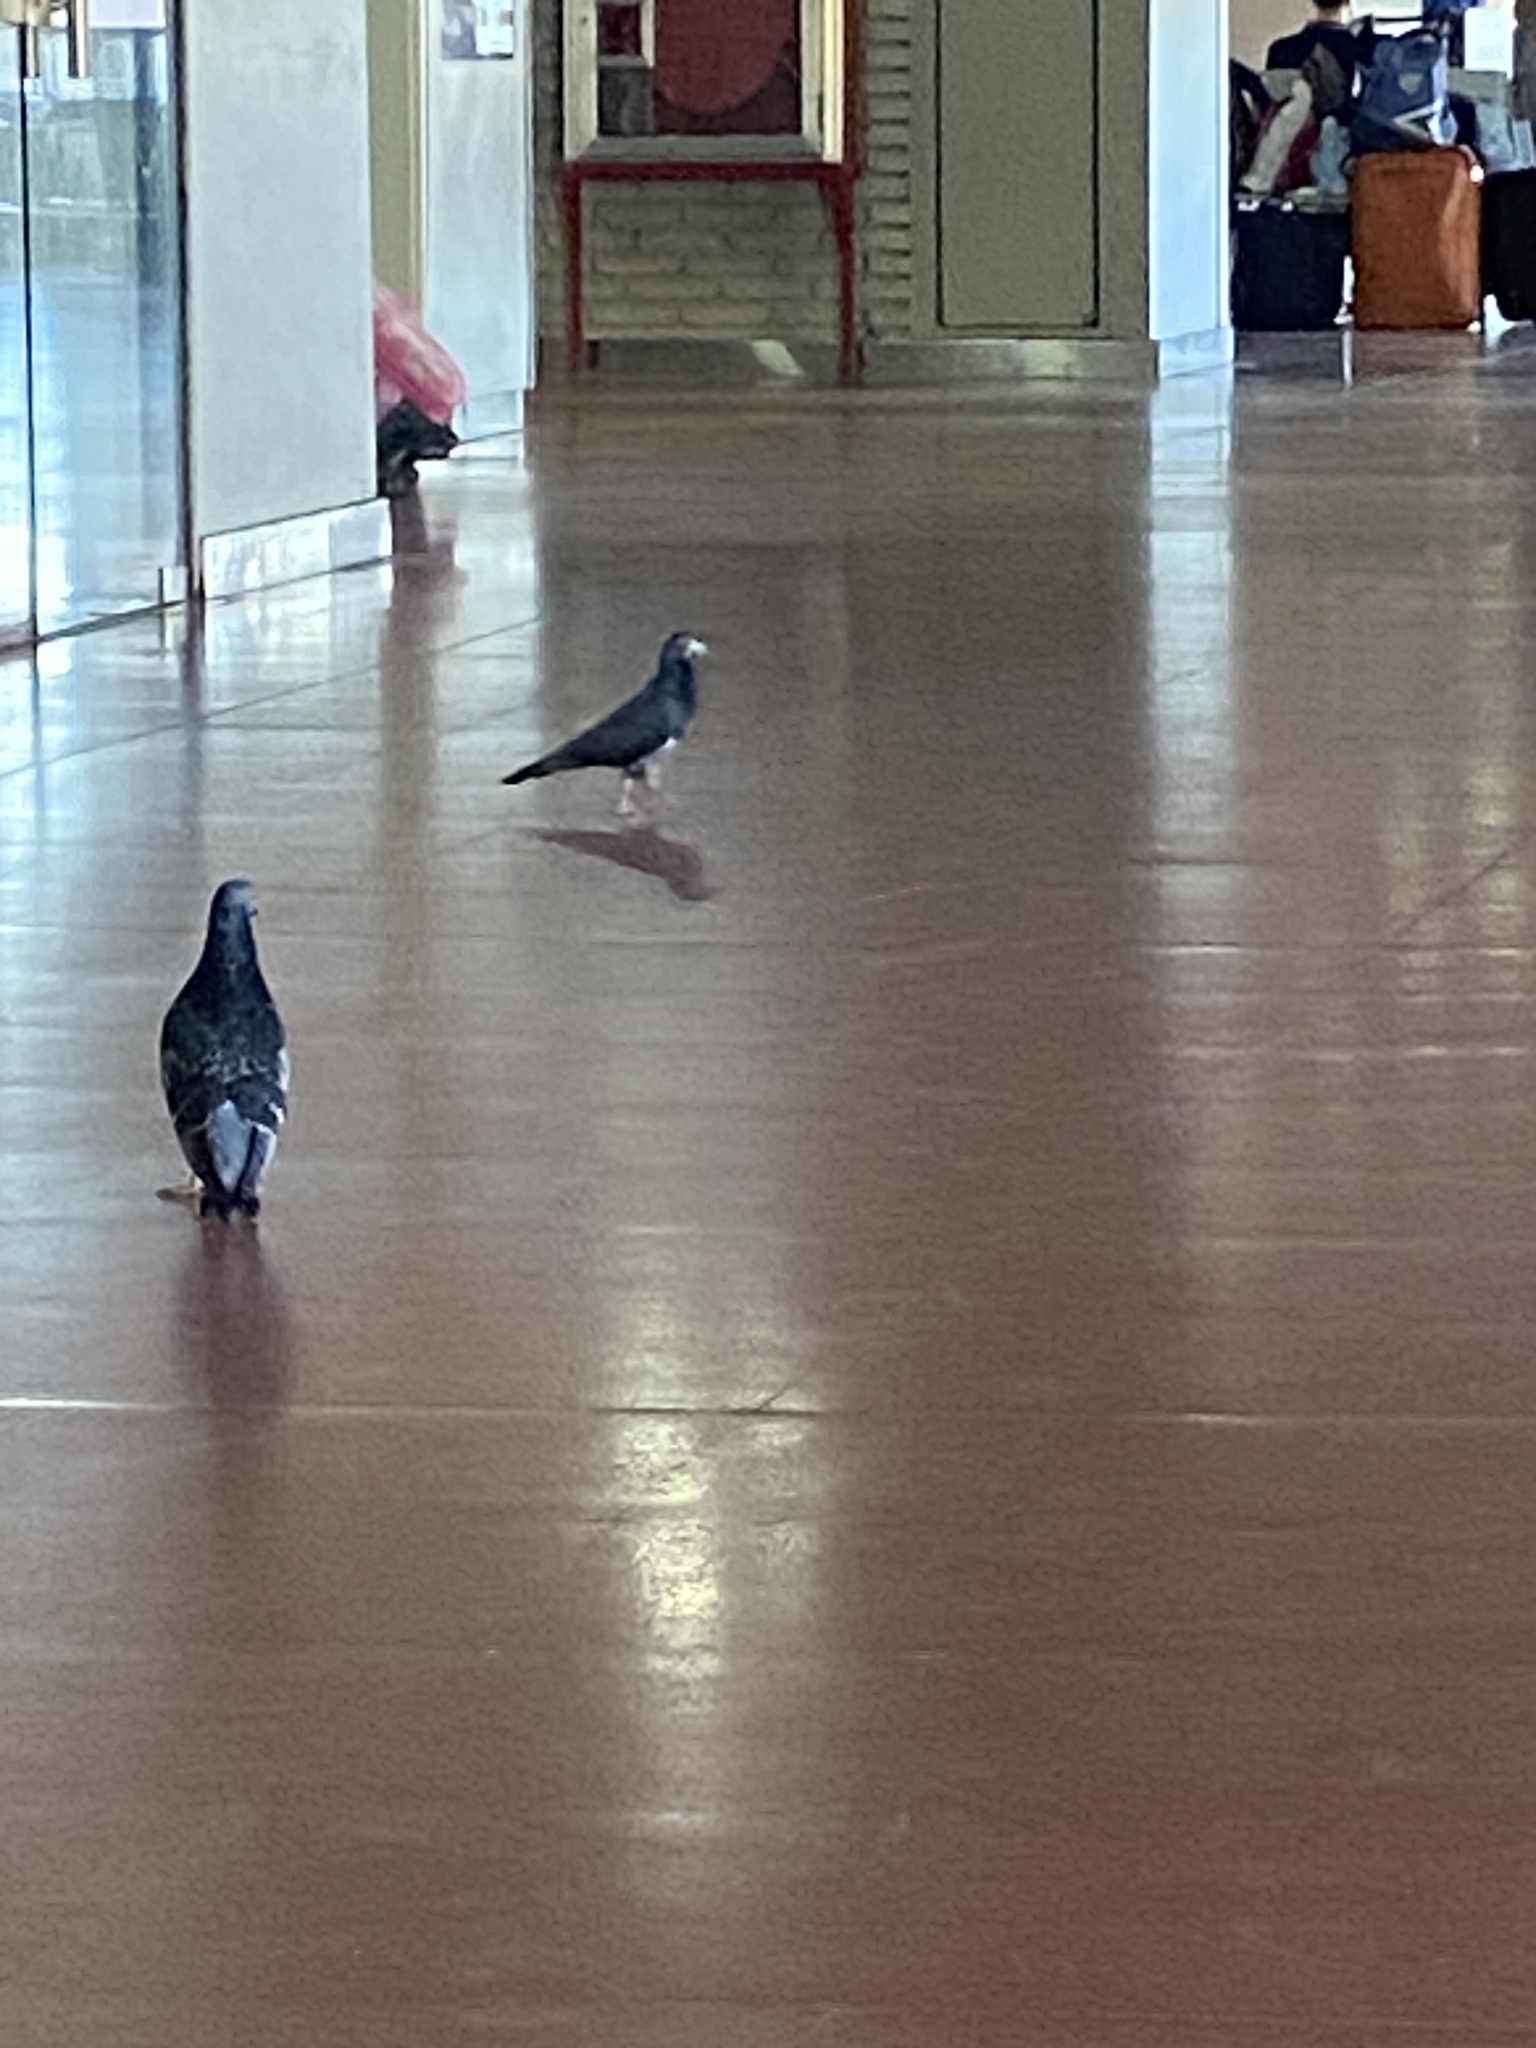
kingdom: Animalia
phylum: Chordata
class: Aves
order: Columbiformes
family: Columbidae
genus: Columba
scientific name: Columba livia
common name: Rock pigeon
